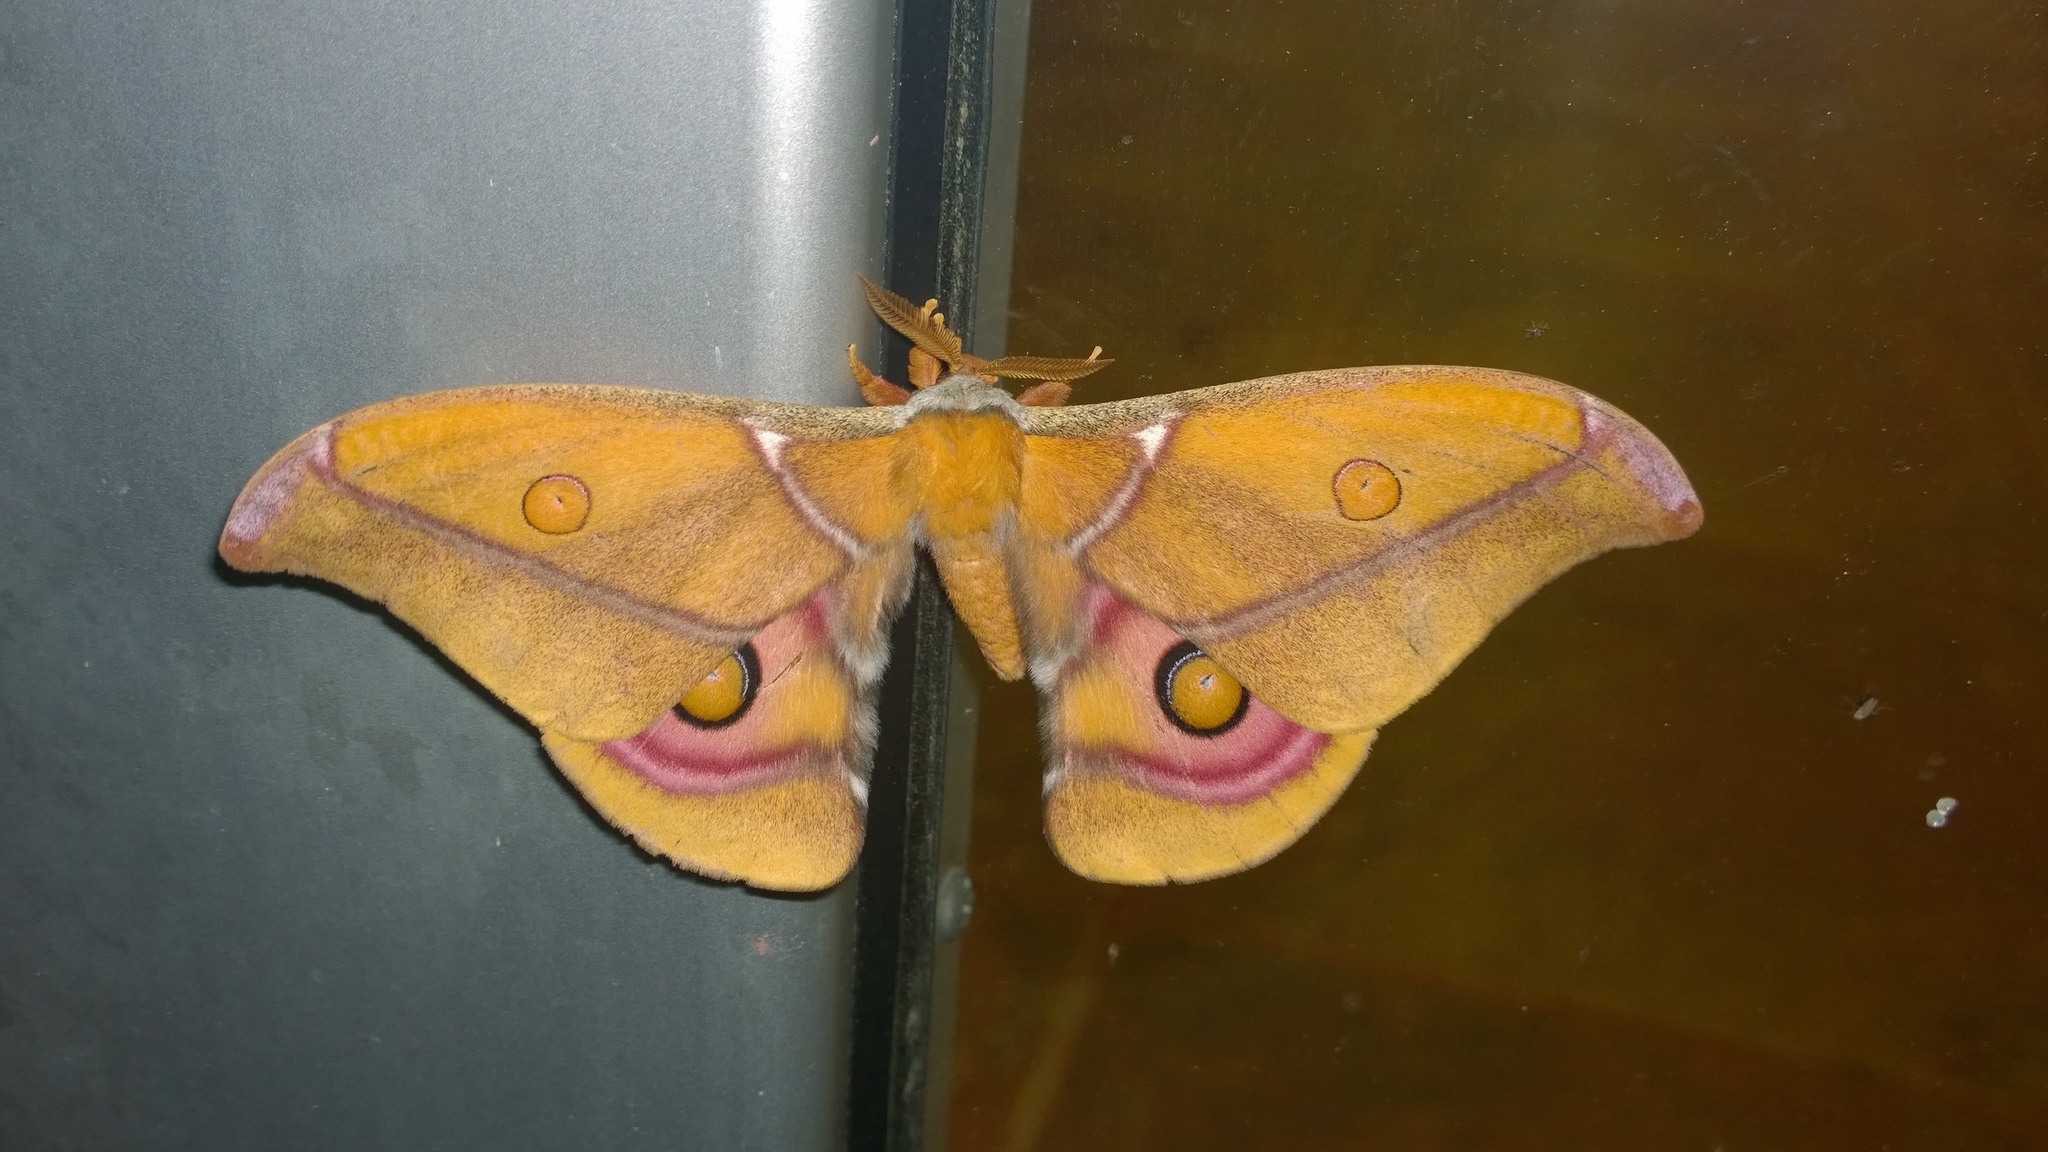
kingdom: Animalia
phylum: Arthropoda
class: Insecta
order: Lepidoptera
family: Saturniidae
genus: Antherina
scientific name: Antherina suraka
